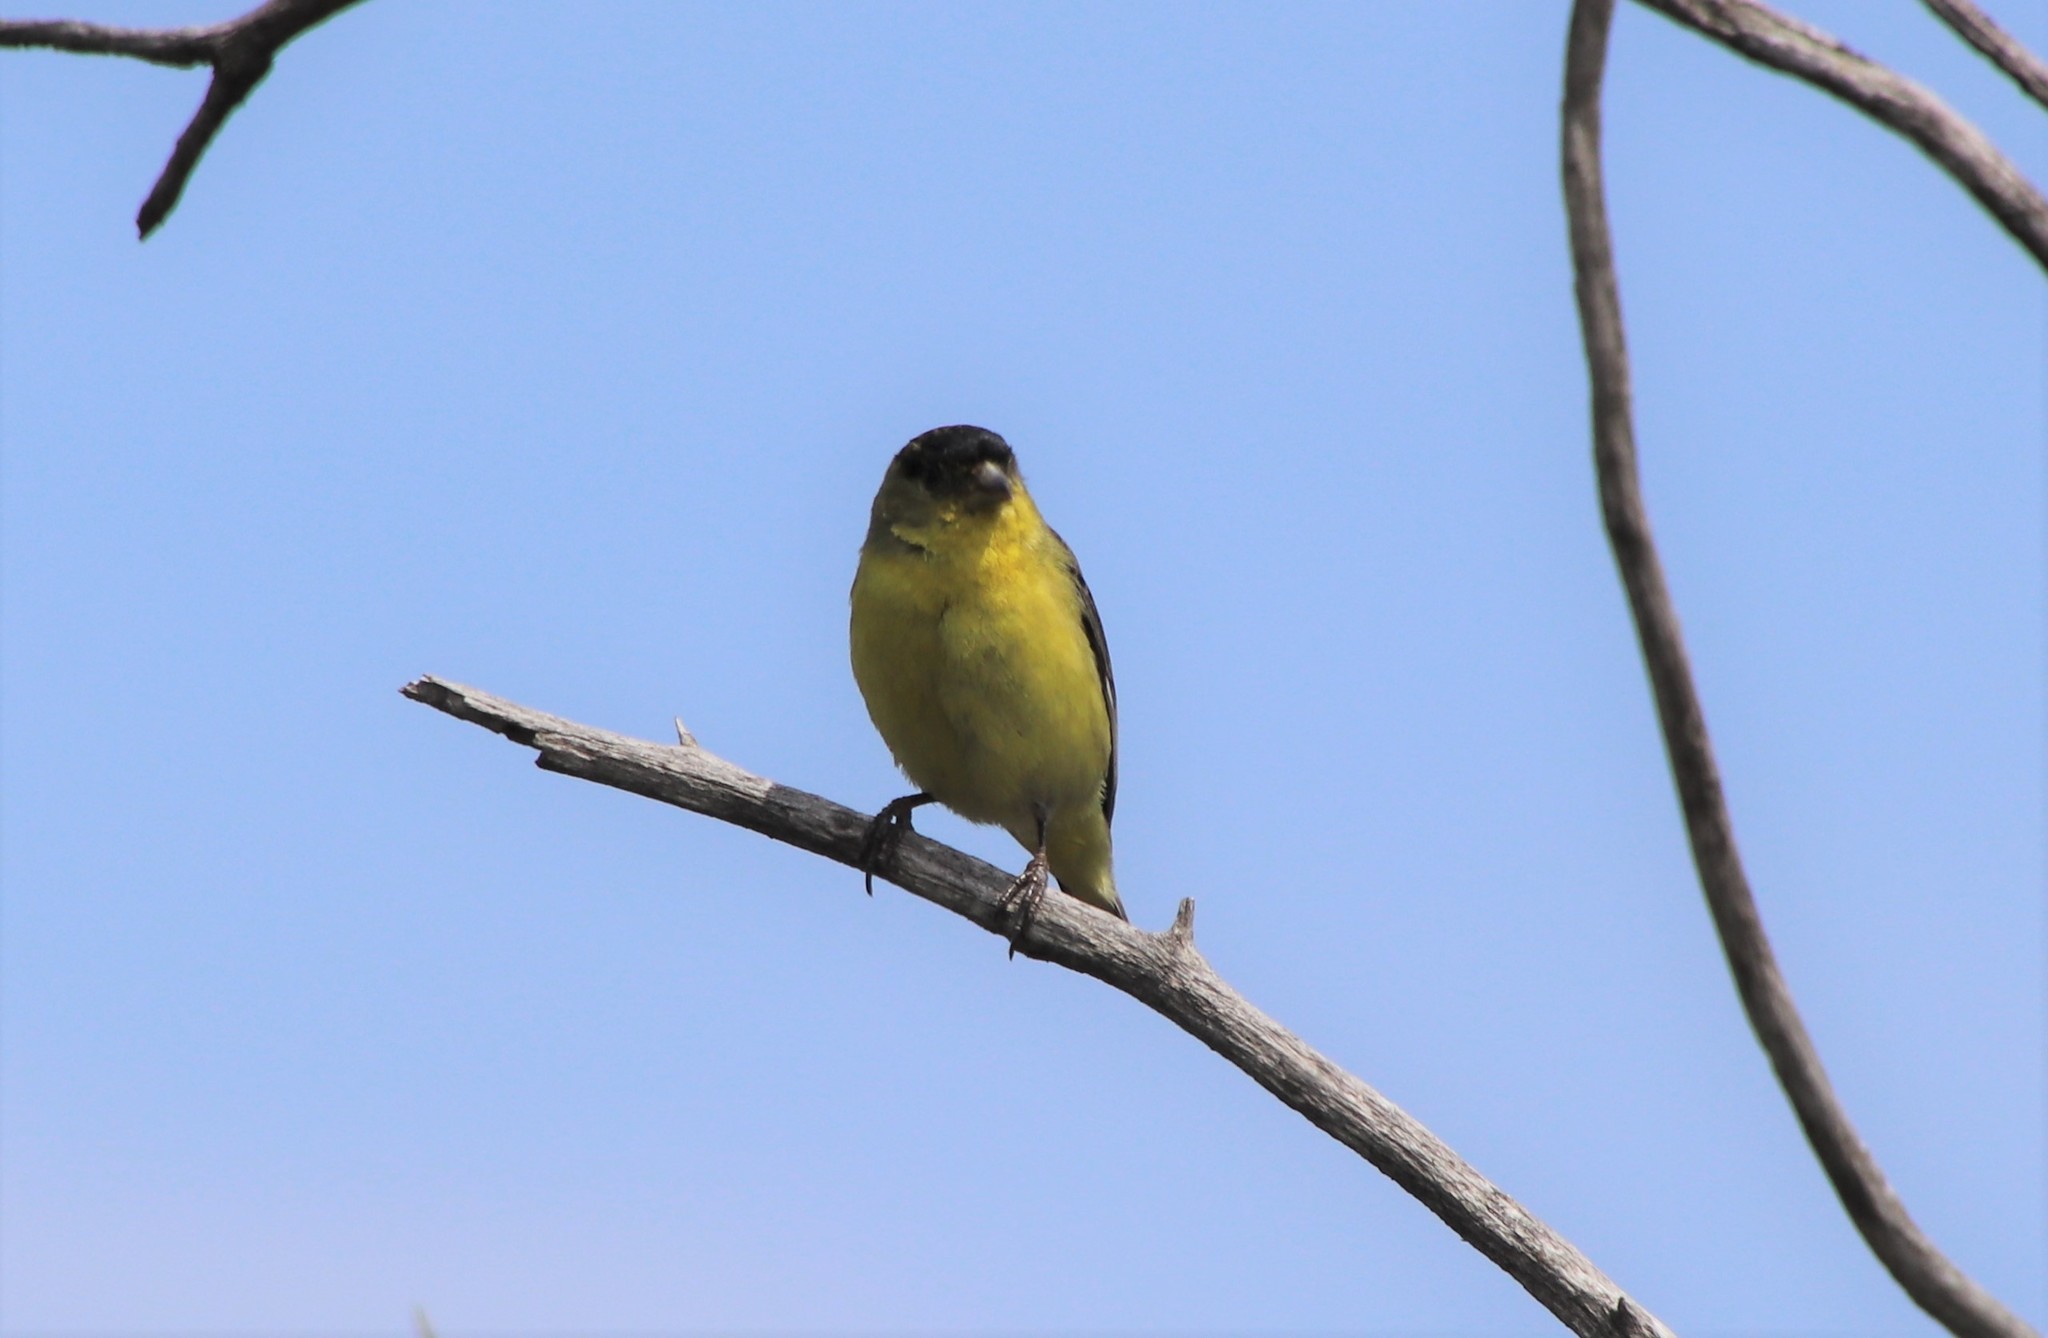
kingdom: Animalia
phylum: Chordata
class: Aves
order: Passeriformes
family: Fringillidae
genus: Spinus
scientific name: Spinus psaltria
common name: Lesser goldfinch
